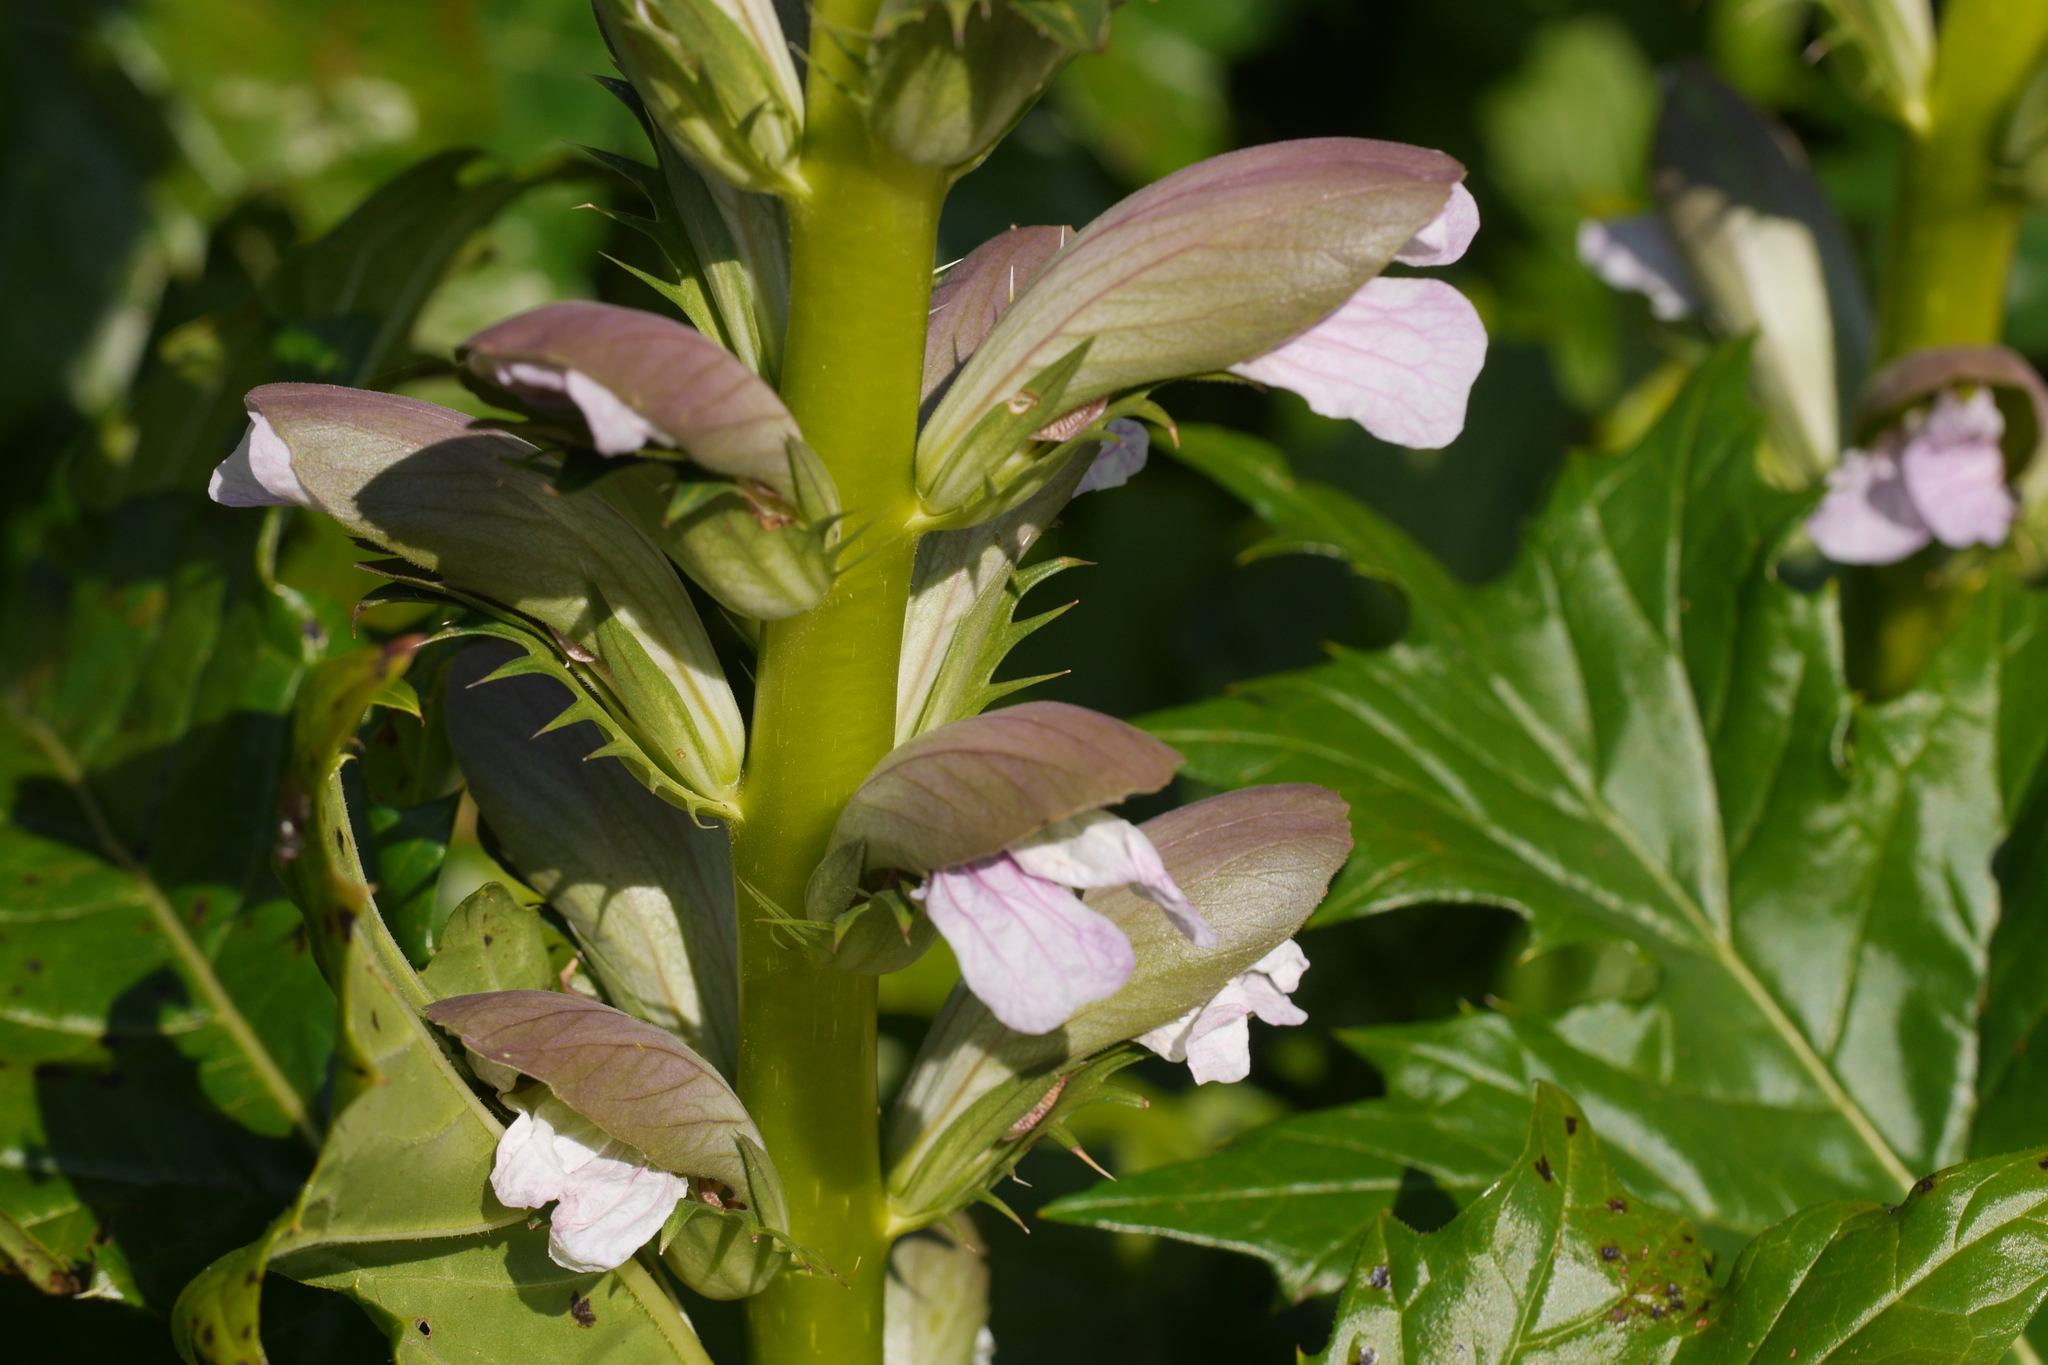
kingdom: Plantae
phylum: Tracheophyta
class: Magnoliopsida
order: Lamiales
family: Acanthaceae
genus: Acanthus
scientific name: Acanthus mollis
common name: Bear's-breech
